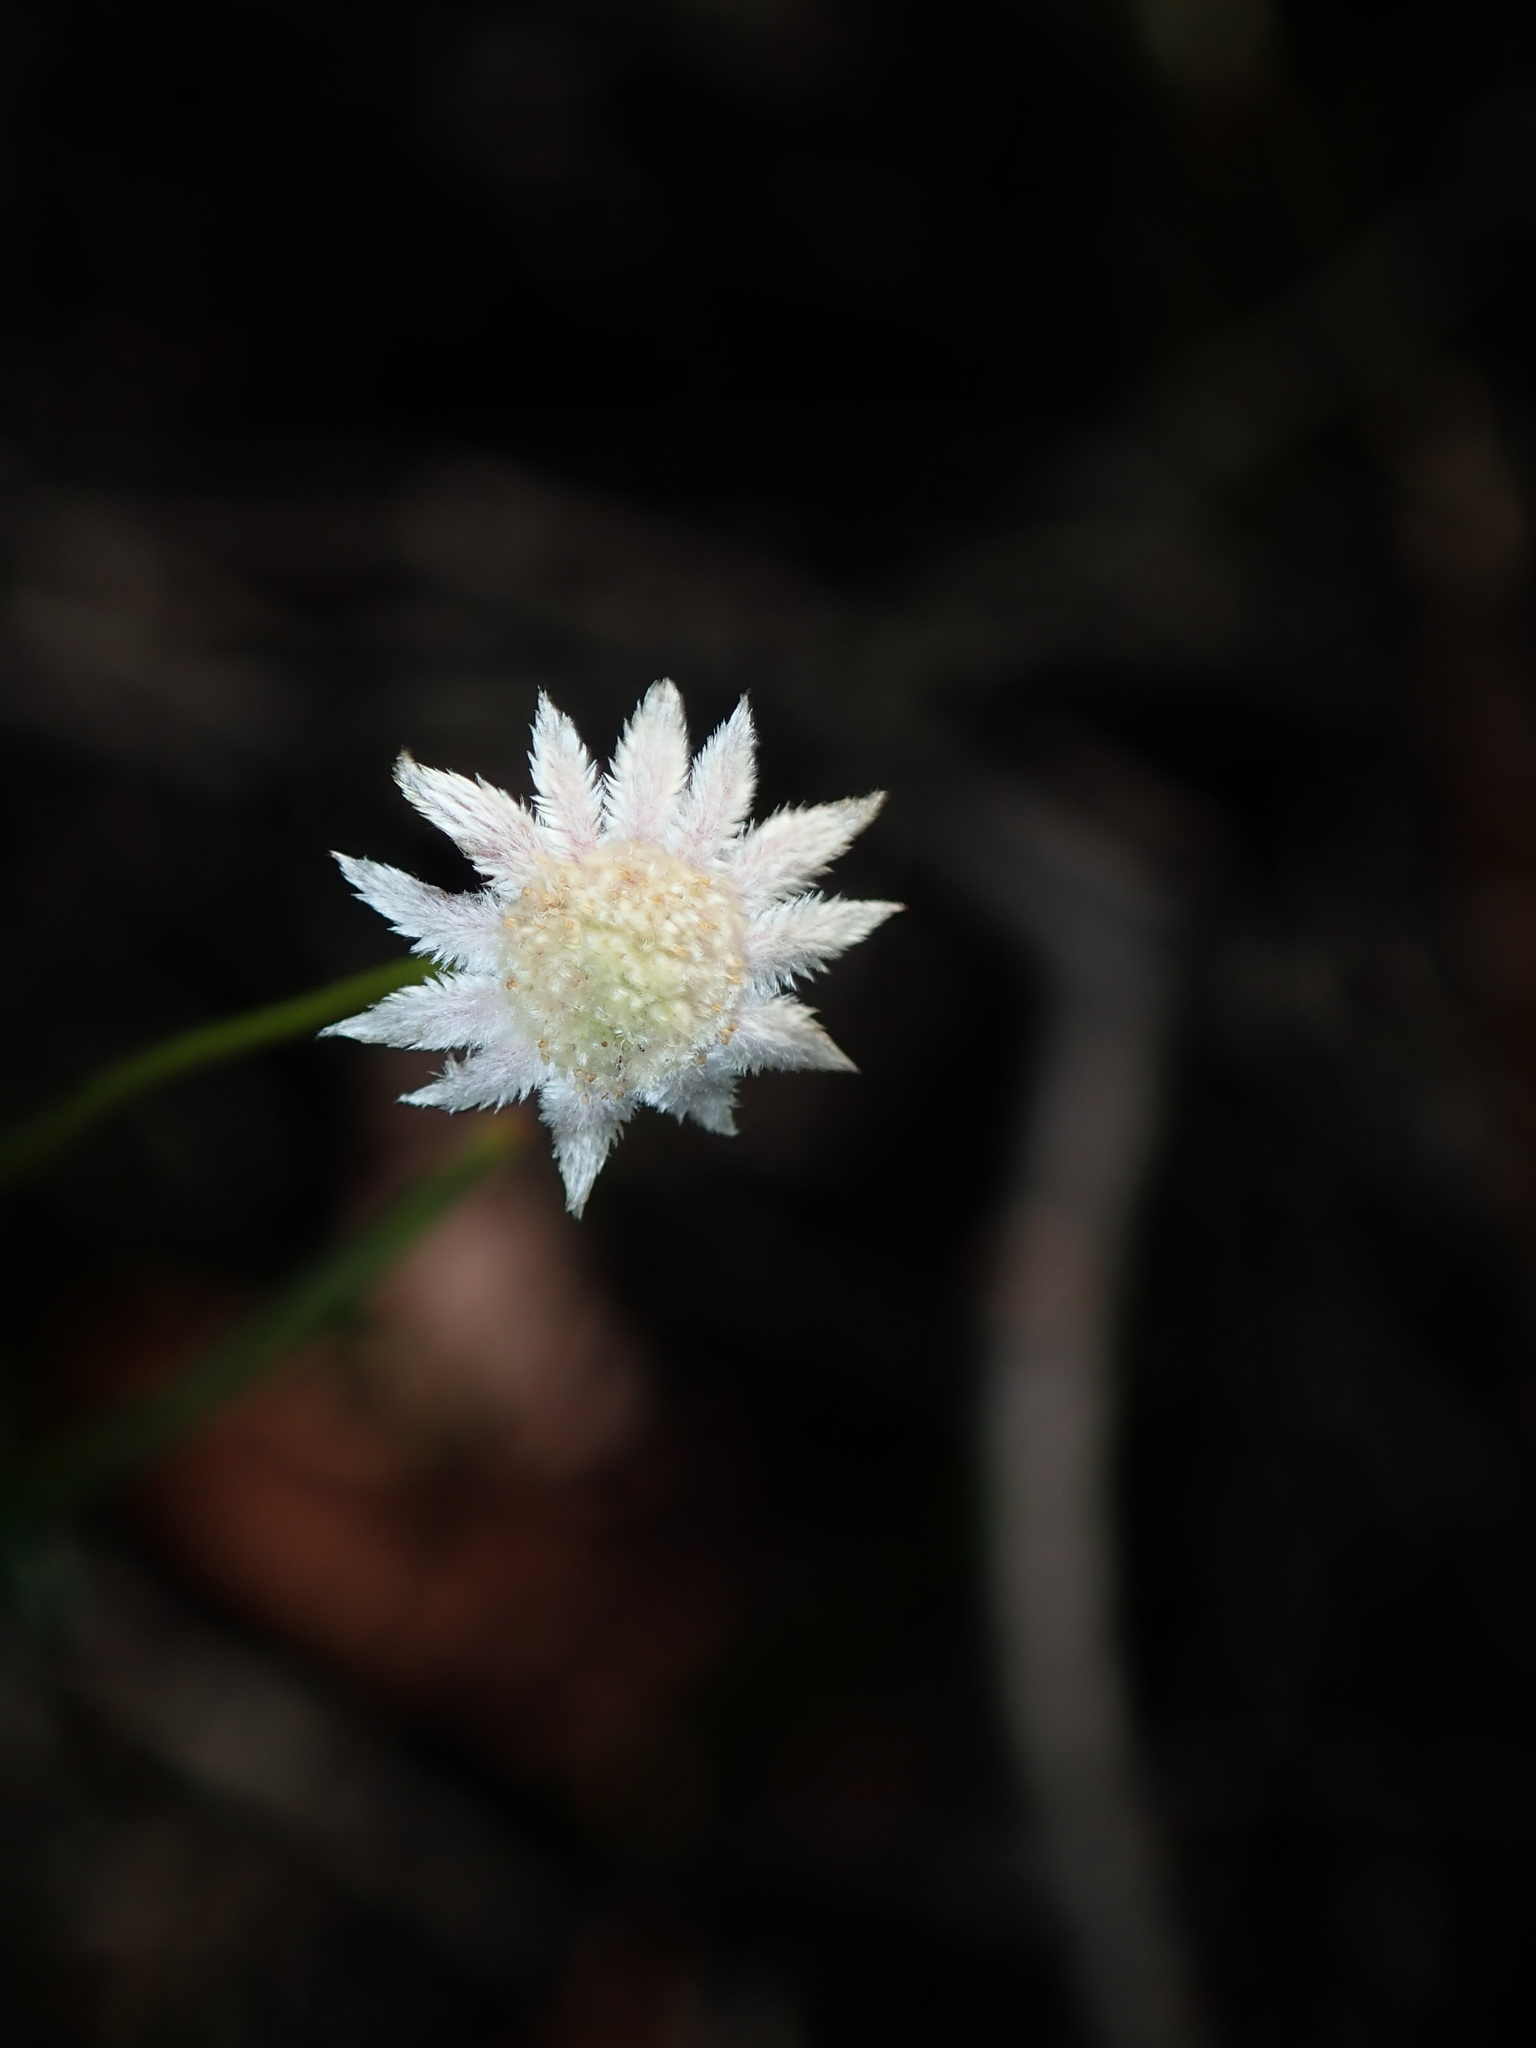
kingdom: Plantae
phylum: Tracheophyta
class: Magnoliopsida
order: Apiales
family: Apiaceae
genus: Actinotus
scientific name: Actinotus minor
